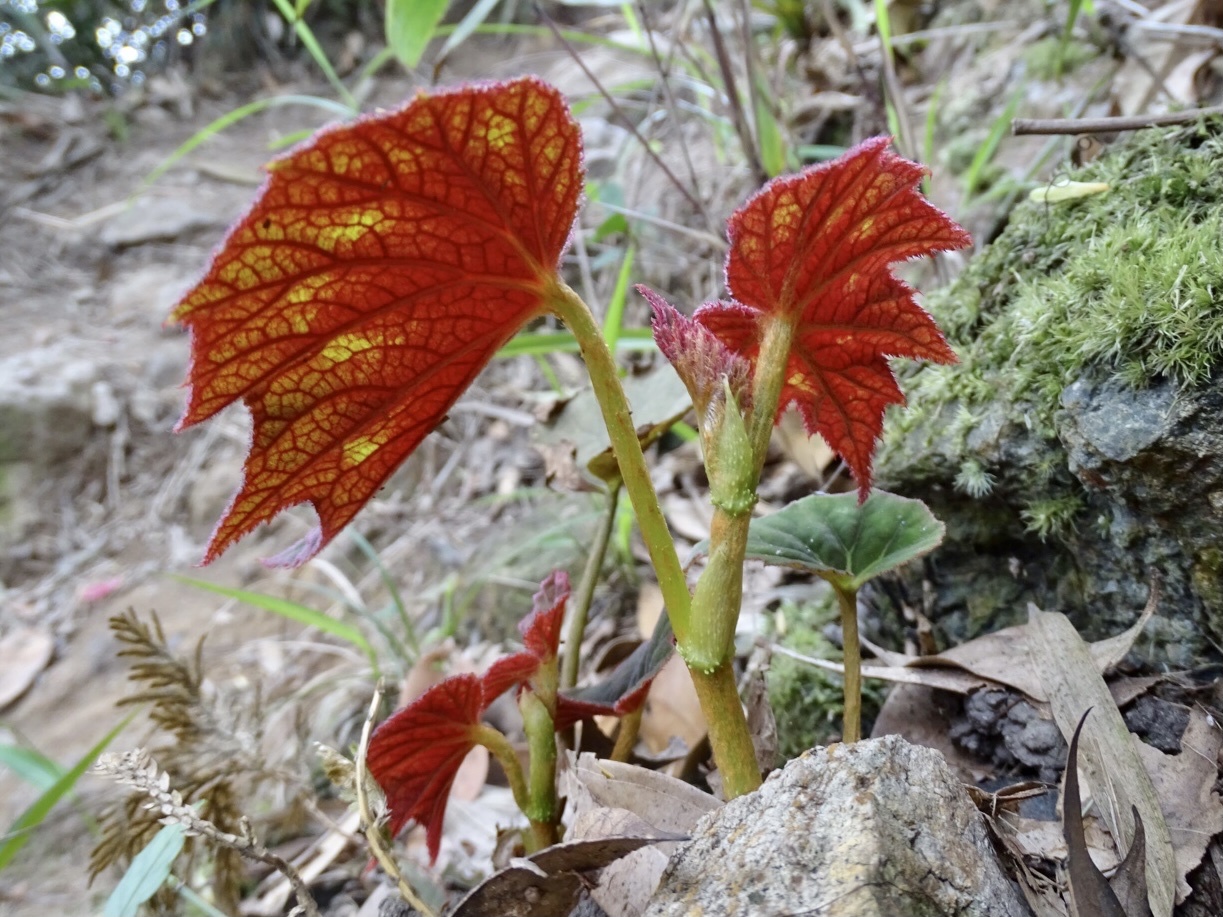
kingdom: Plantae
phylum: Tracheophyta
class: Magnoliopsida
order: Cucurbitales
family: Begoniaceae
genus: Begonia
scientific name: Begonia palmata
